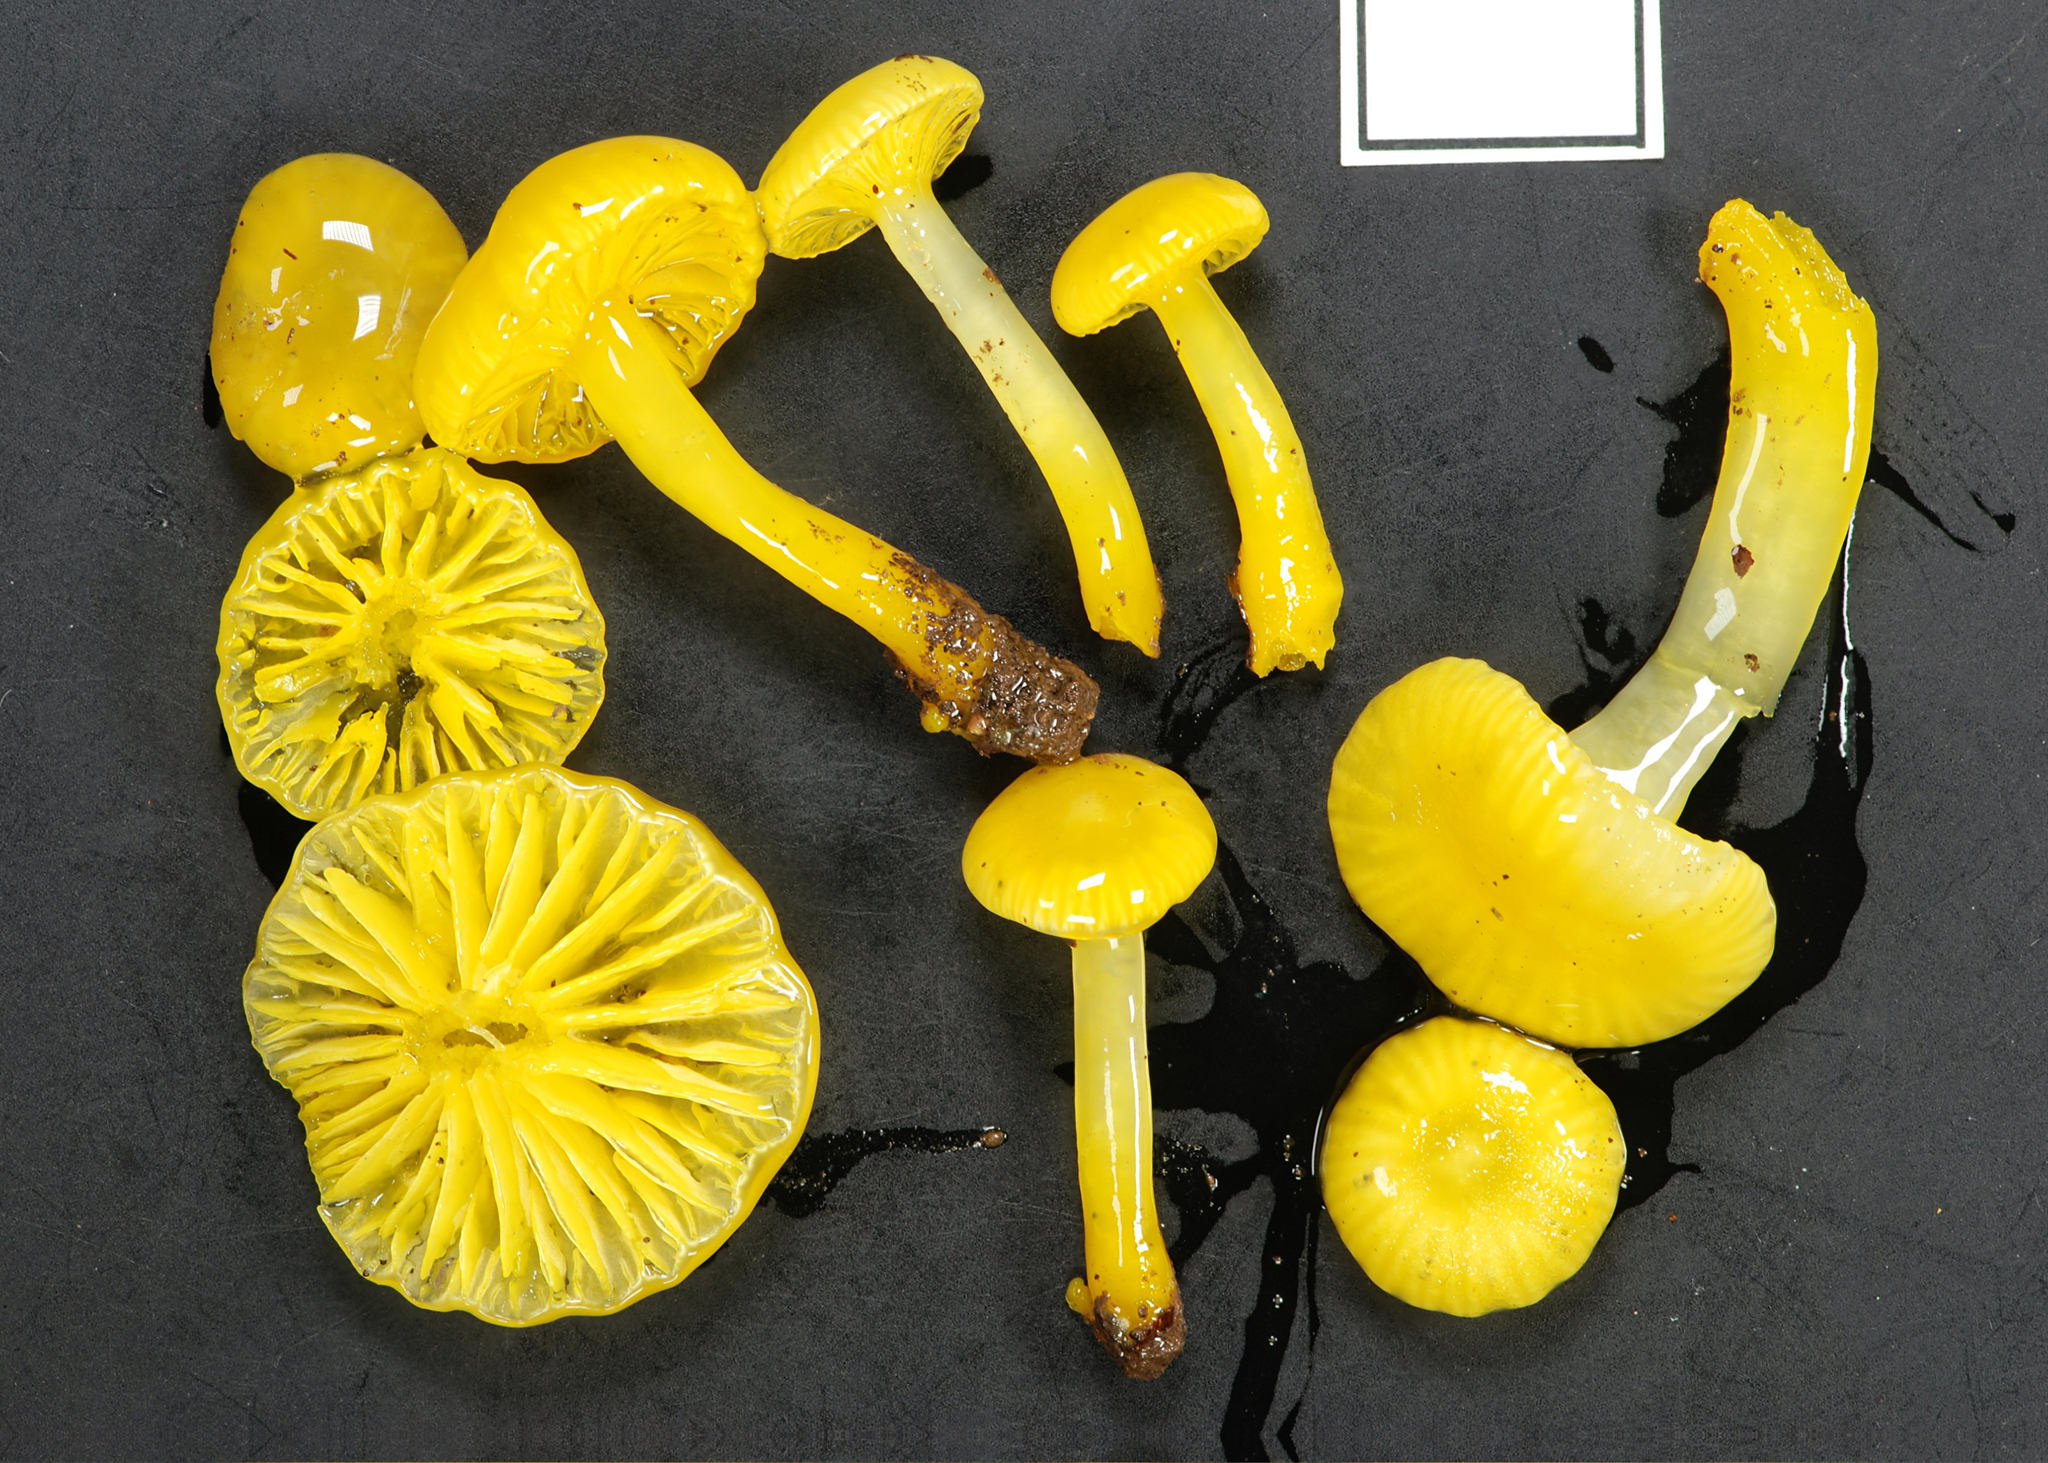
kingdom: Fungi
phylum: Basidiomycota
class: Agaricomycetes
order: Agaricales
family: Hygrophoraceae
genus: Gloioxanthomyces
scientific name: Gloioxanthomyces
